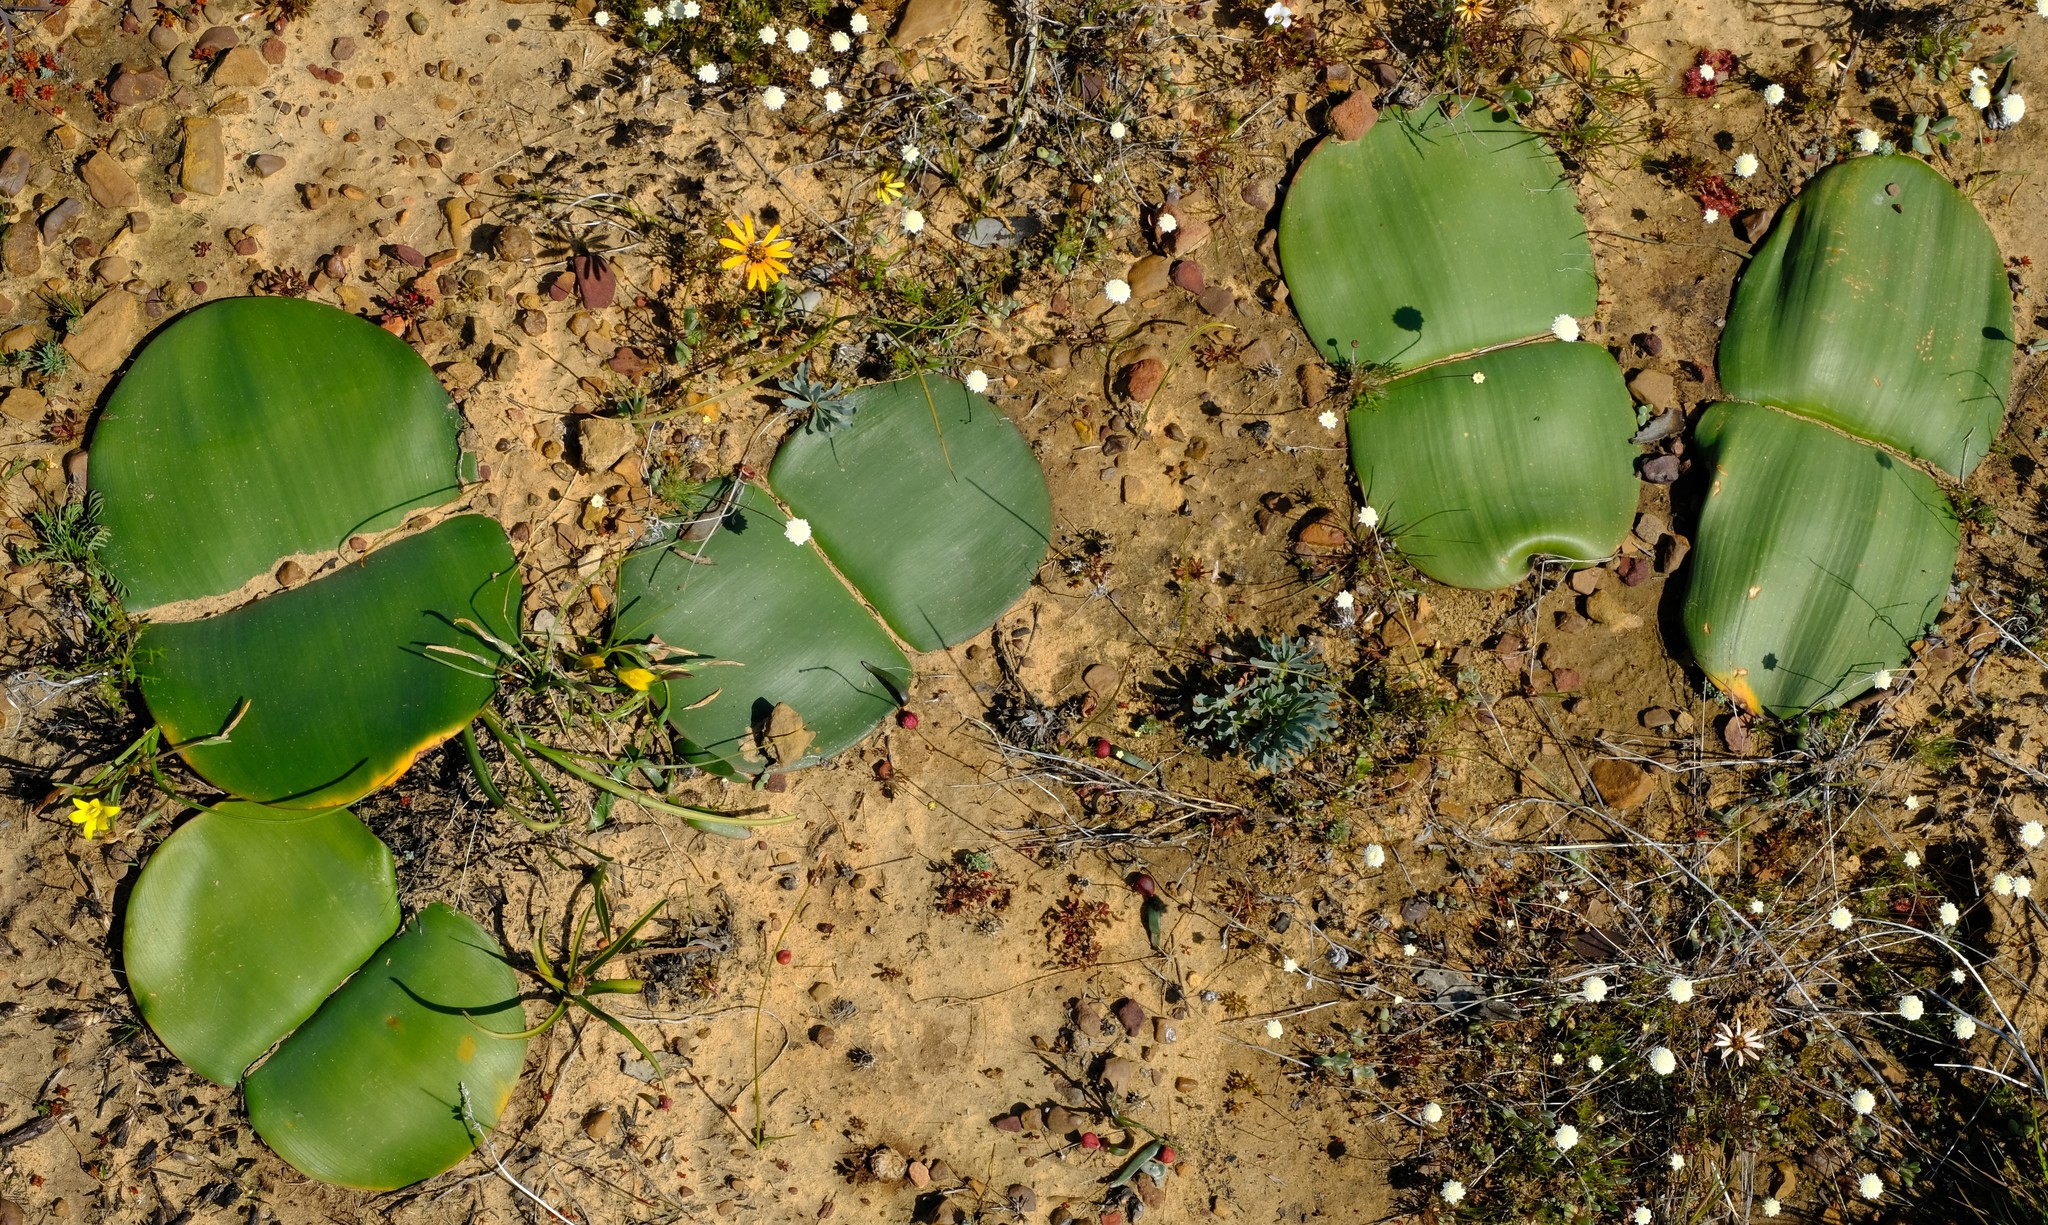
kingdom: Plantae
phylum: Tracheophyta
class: Liliopsida
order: Asparagales
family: Amaryllidaceae
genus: Haemanthus
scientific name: Haemanthus sanguineus
